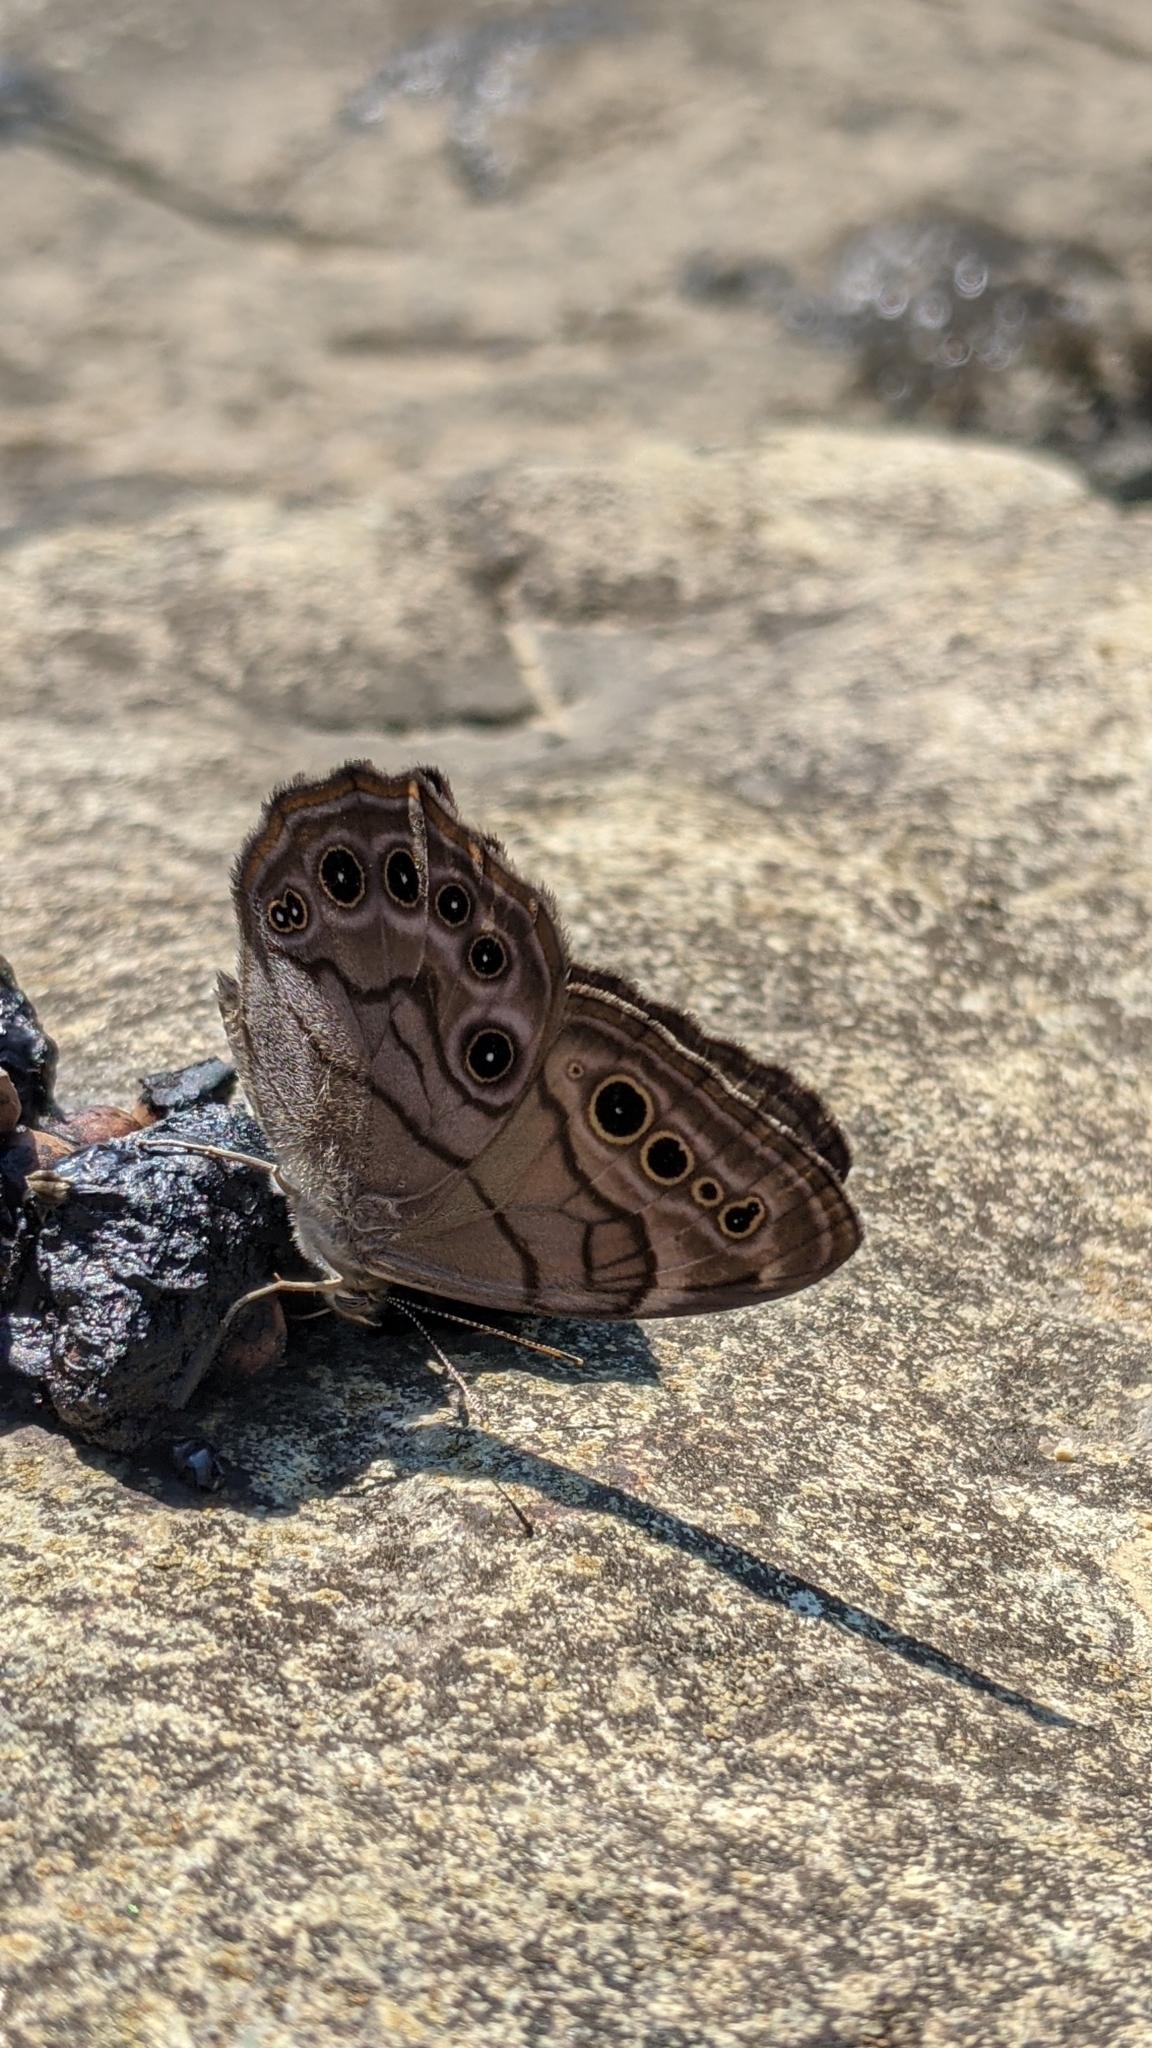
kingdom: Animalia
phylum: Arthropoda
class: Insecta
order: Lepidoptera
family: Nymphalidae
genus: Lethe
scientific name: Lethe anthedon
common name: Northern pearly-eye
